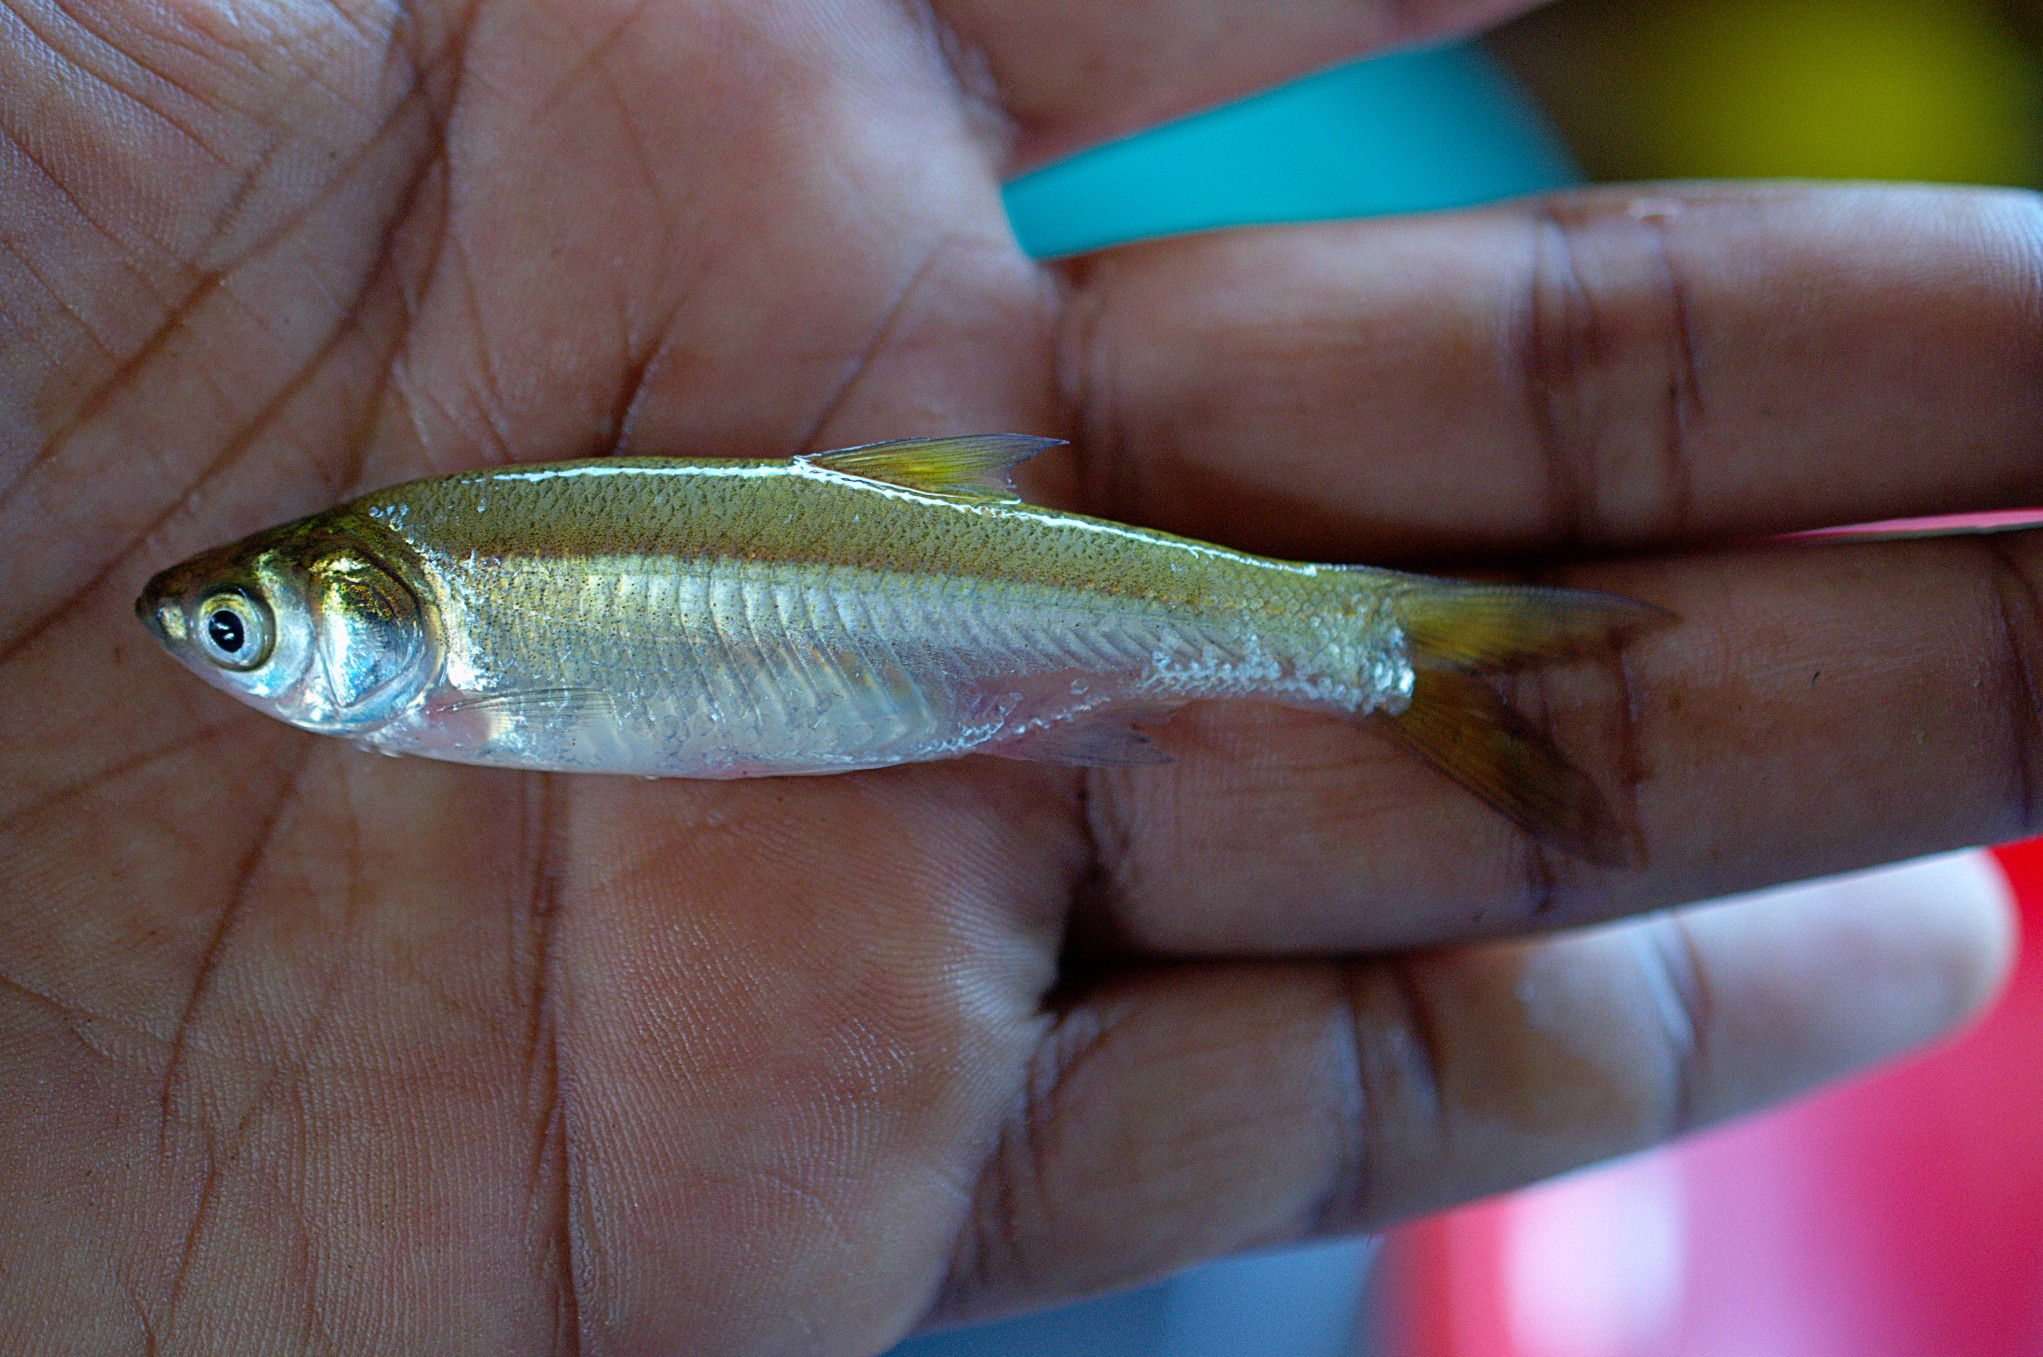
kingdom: Animalia
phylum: Chordata
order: Cypriniformes
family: Cyprinidae
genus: Amblypharyngodon
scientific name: Amblypharyngodon melettinus
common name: Silver carplet
